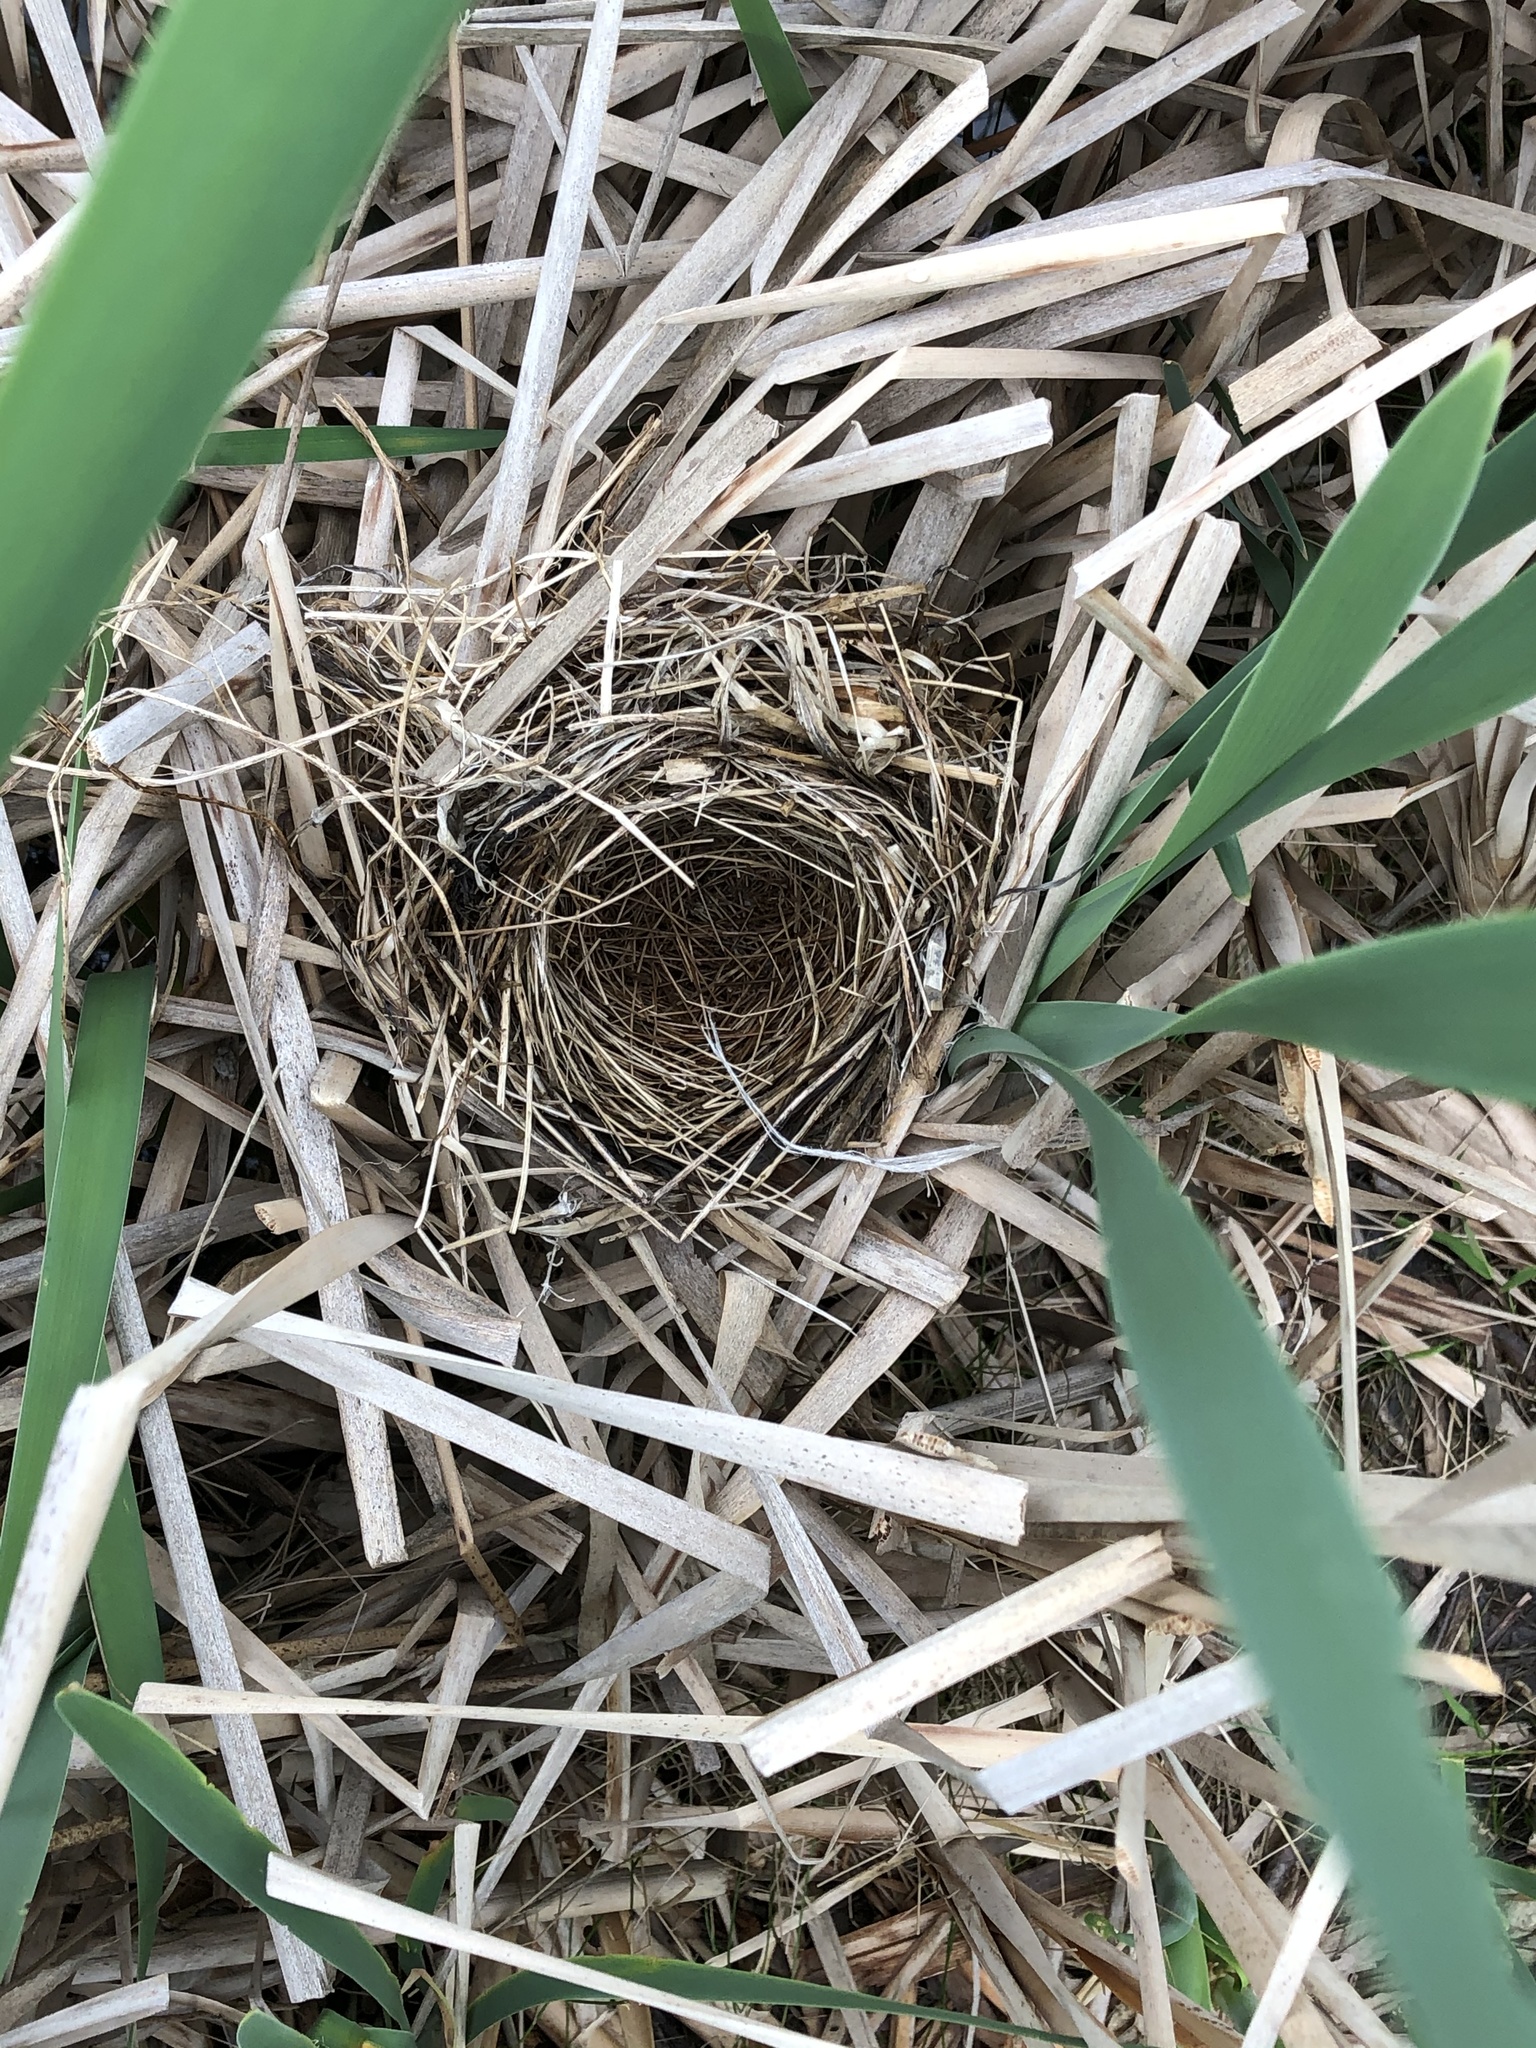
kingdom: Animalia
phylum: Chordata
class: Aves
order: Passeriformes
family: Icteridae
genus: Agelaius
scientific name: Agelaius phoeniceus
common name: Red-winged blackbird
